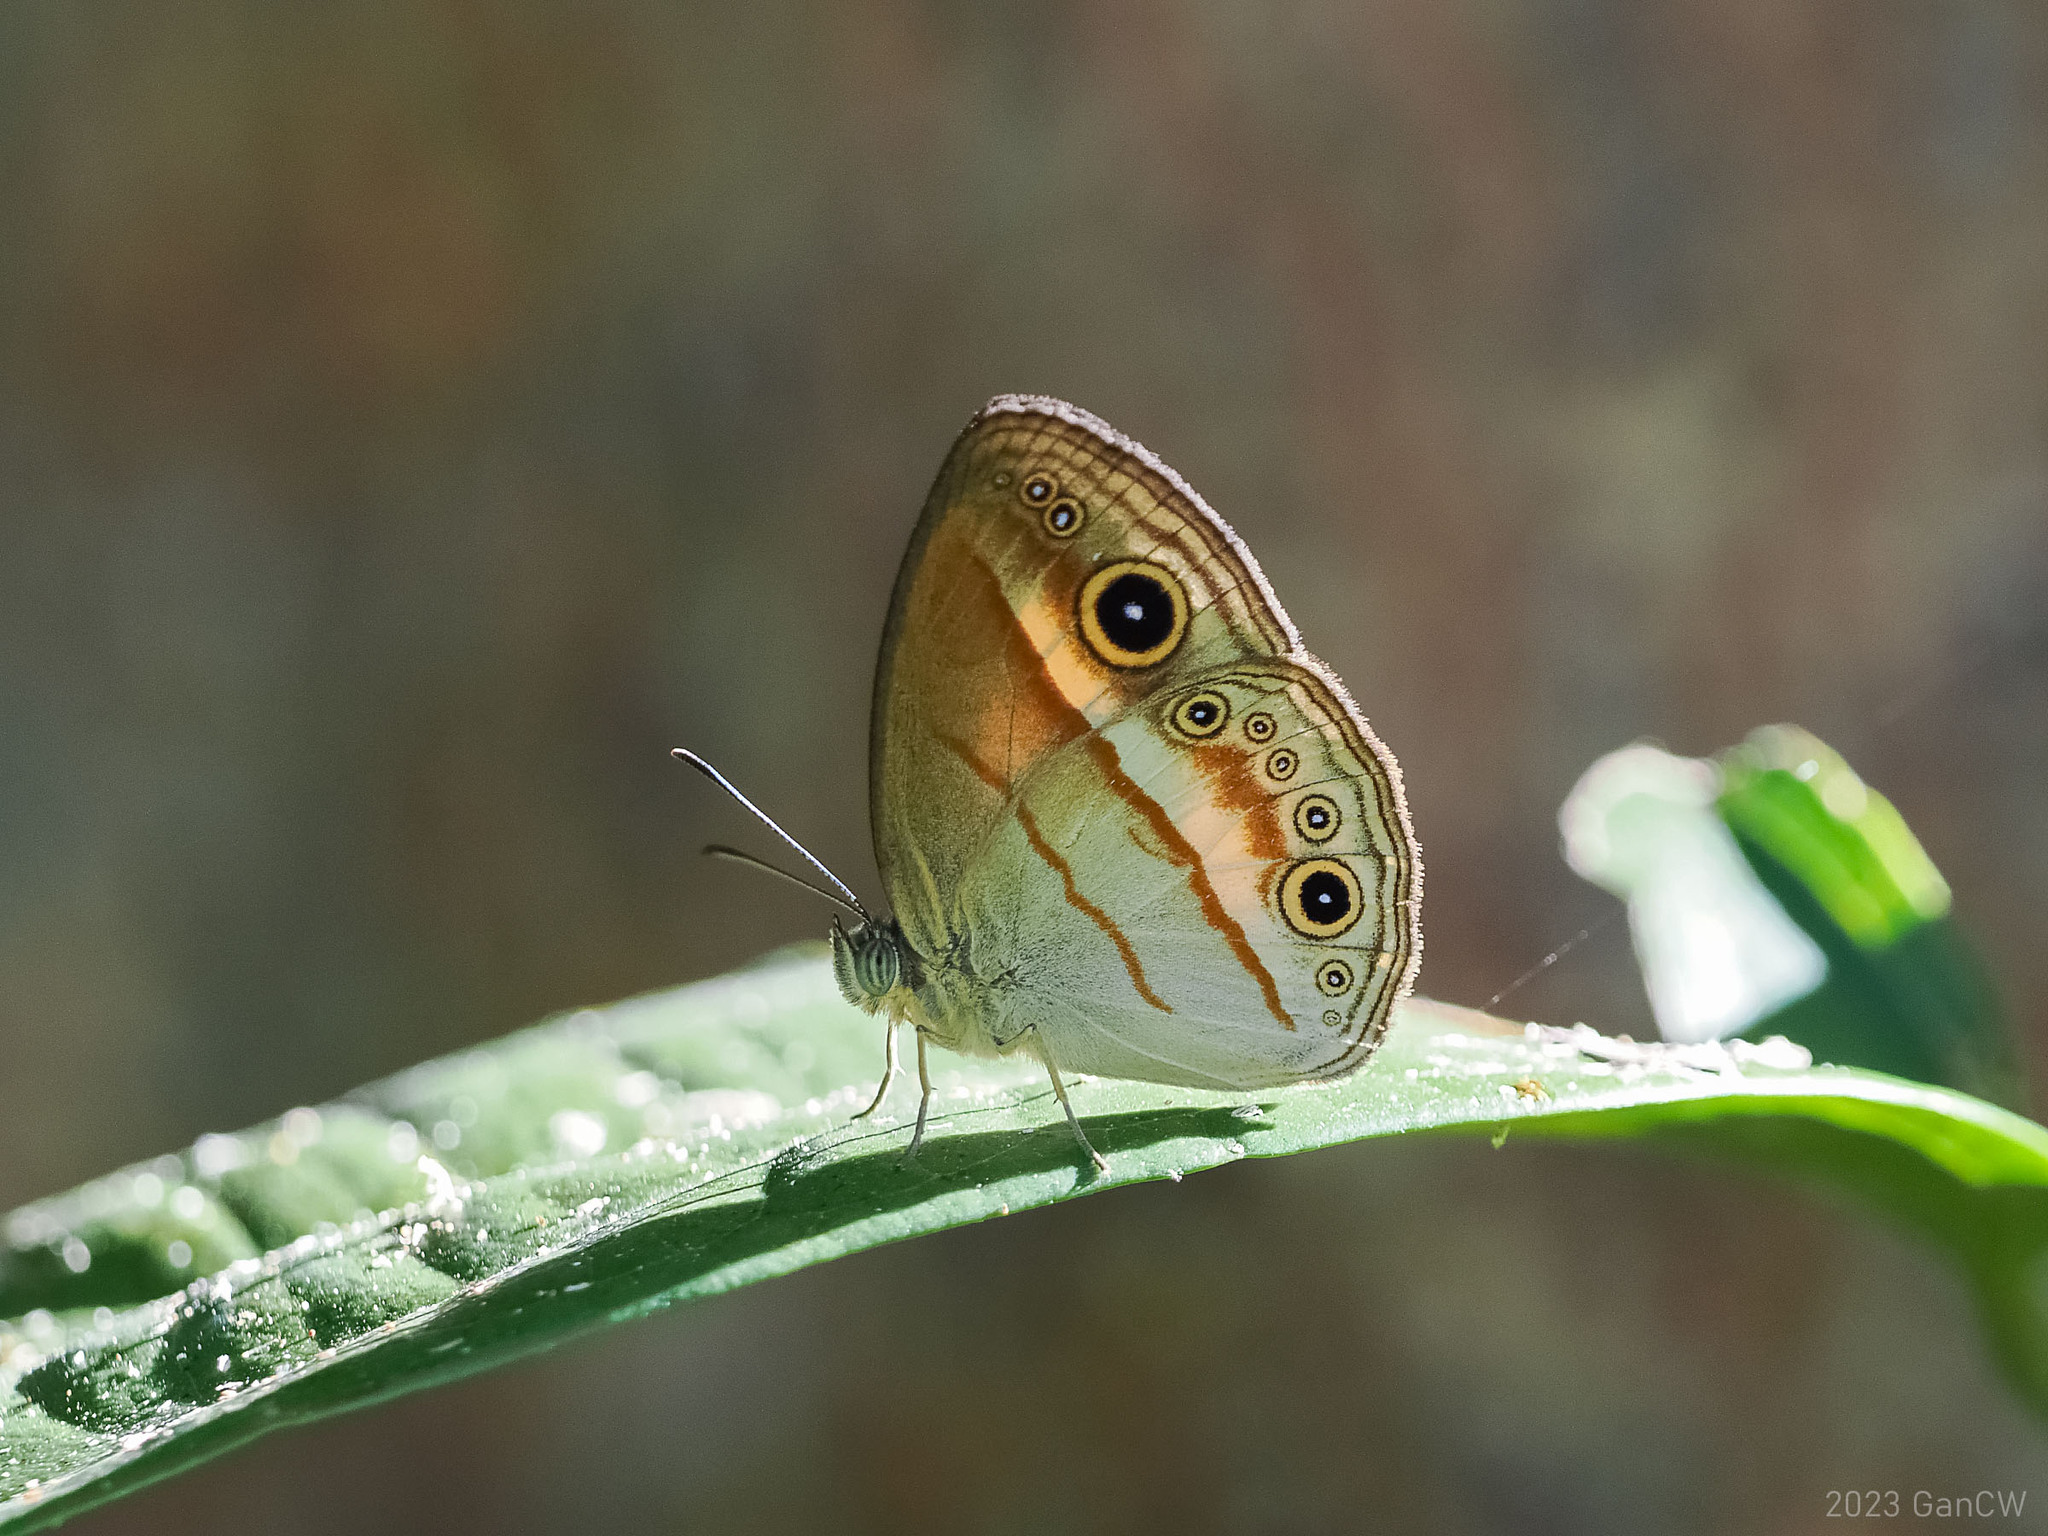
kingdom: Animalia
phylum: Arthropoda
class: Insecta
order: Lepidoptera
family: Nymphalidae
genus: Mycalesis
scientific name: Mycalesis ita
